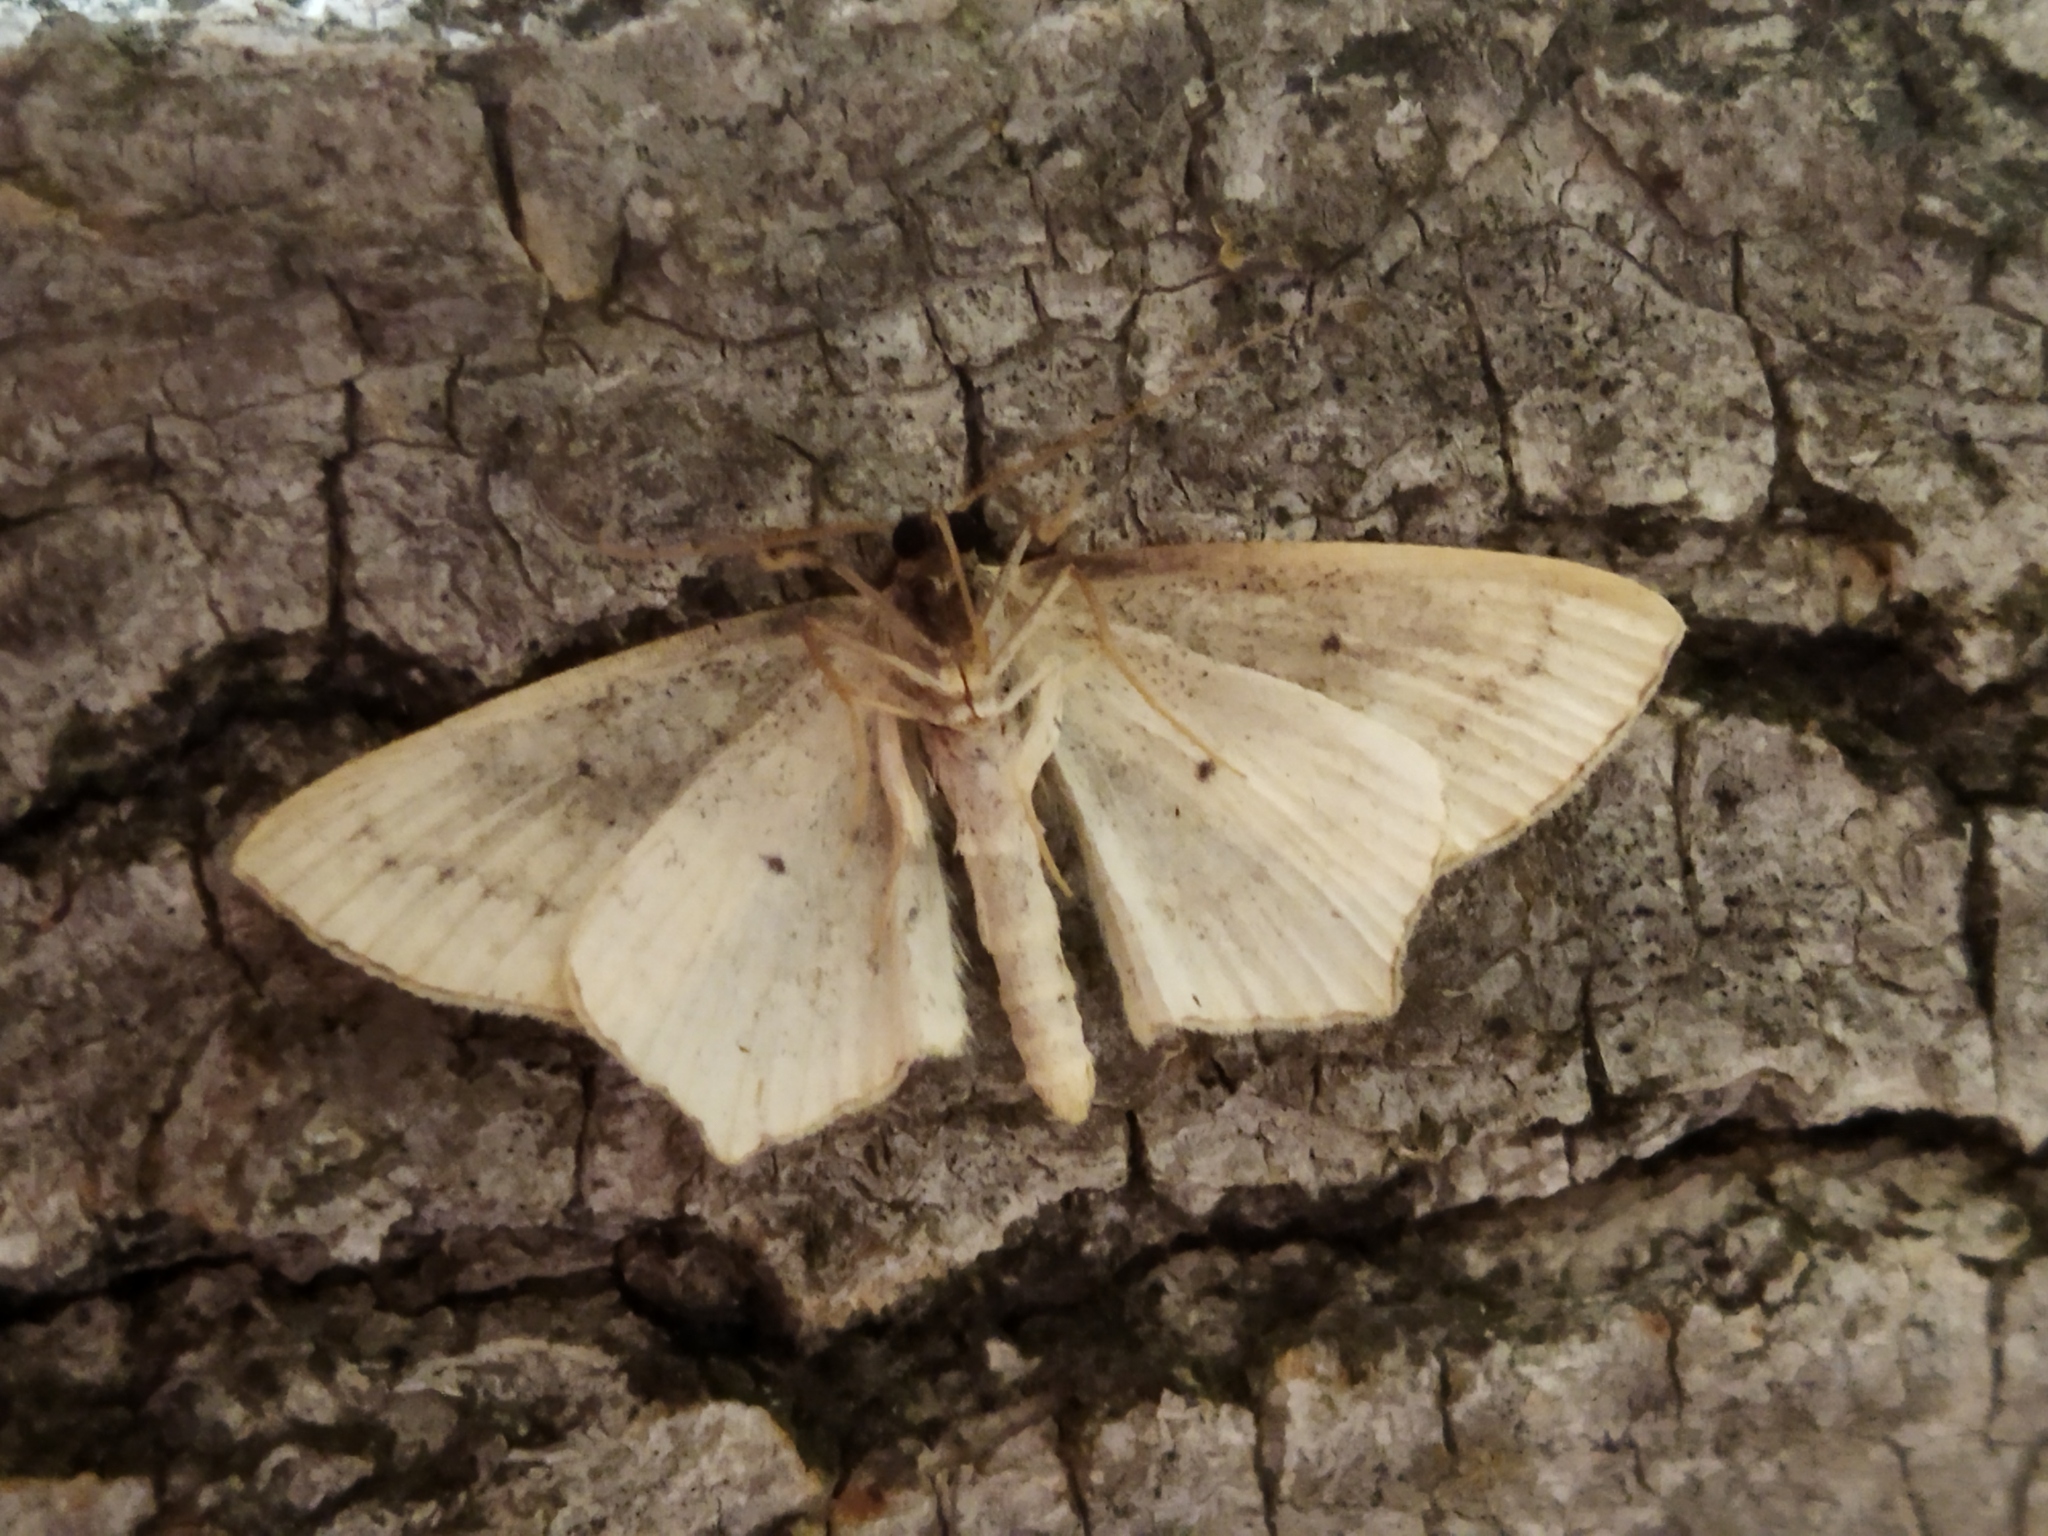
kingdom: Animalia
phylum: Arthropoda
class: Insecta
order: Lepidoptera
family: Geometridae
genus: Scopula
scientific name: Scopula flaccidaria
